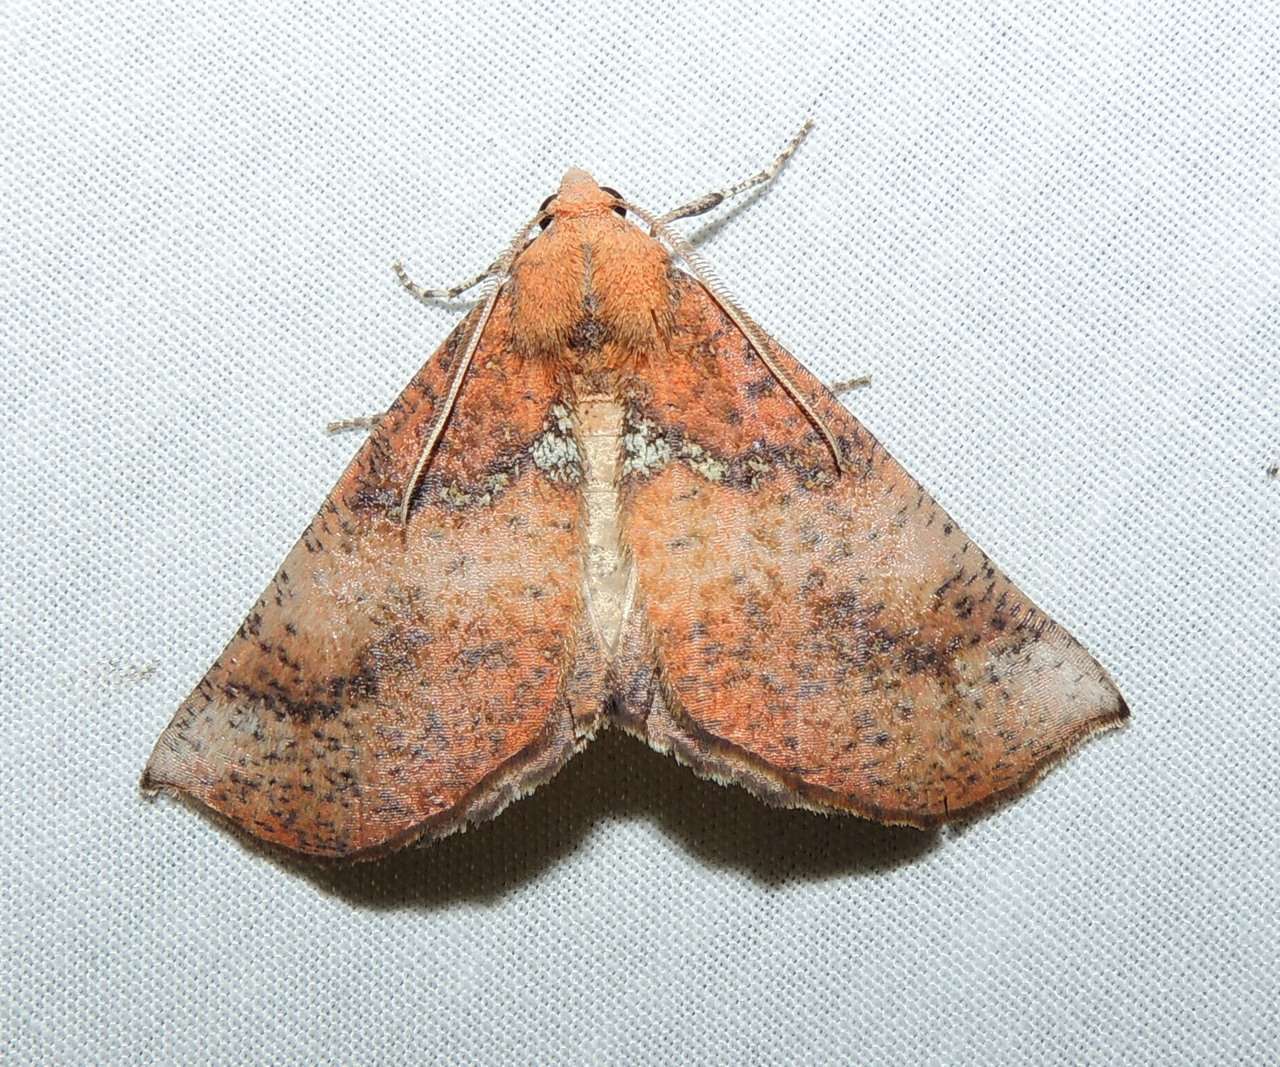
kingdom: Animalia
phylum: Arthropoda
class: Insecta
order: Lepidoptera
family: Geometridae
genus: Mnesampela
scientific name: Mnesampela comarcha
